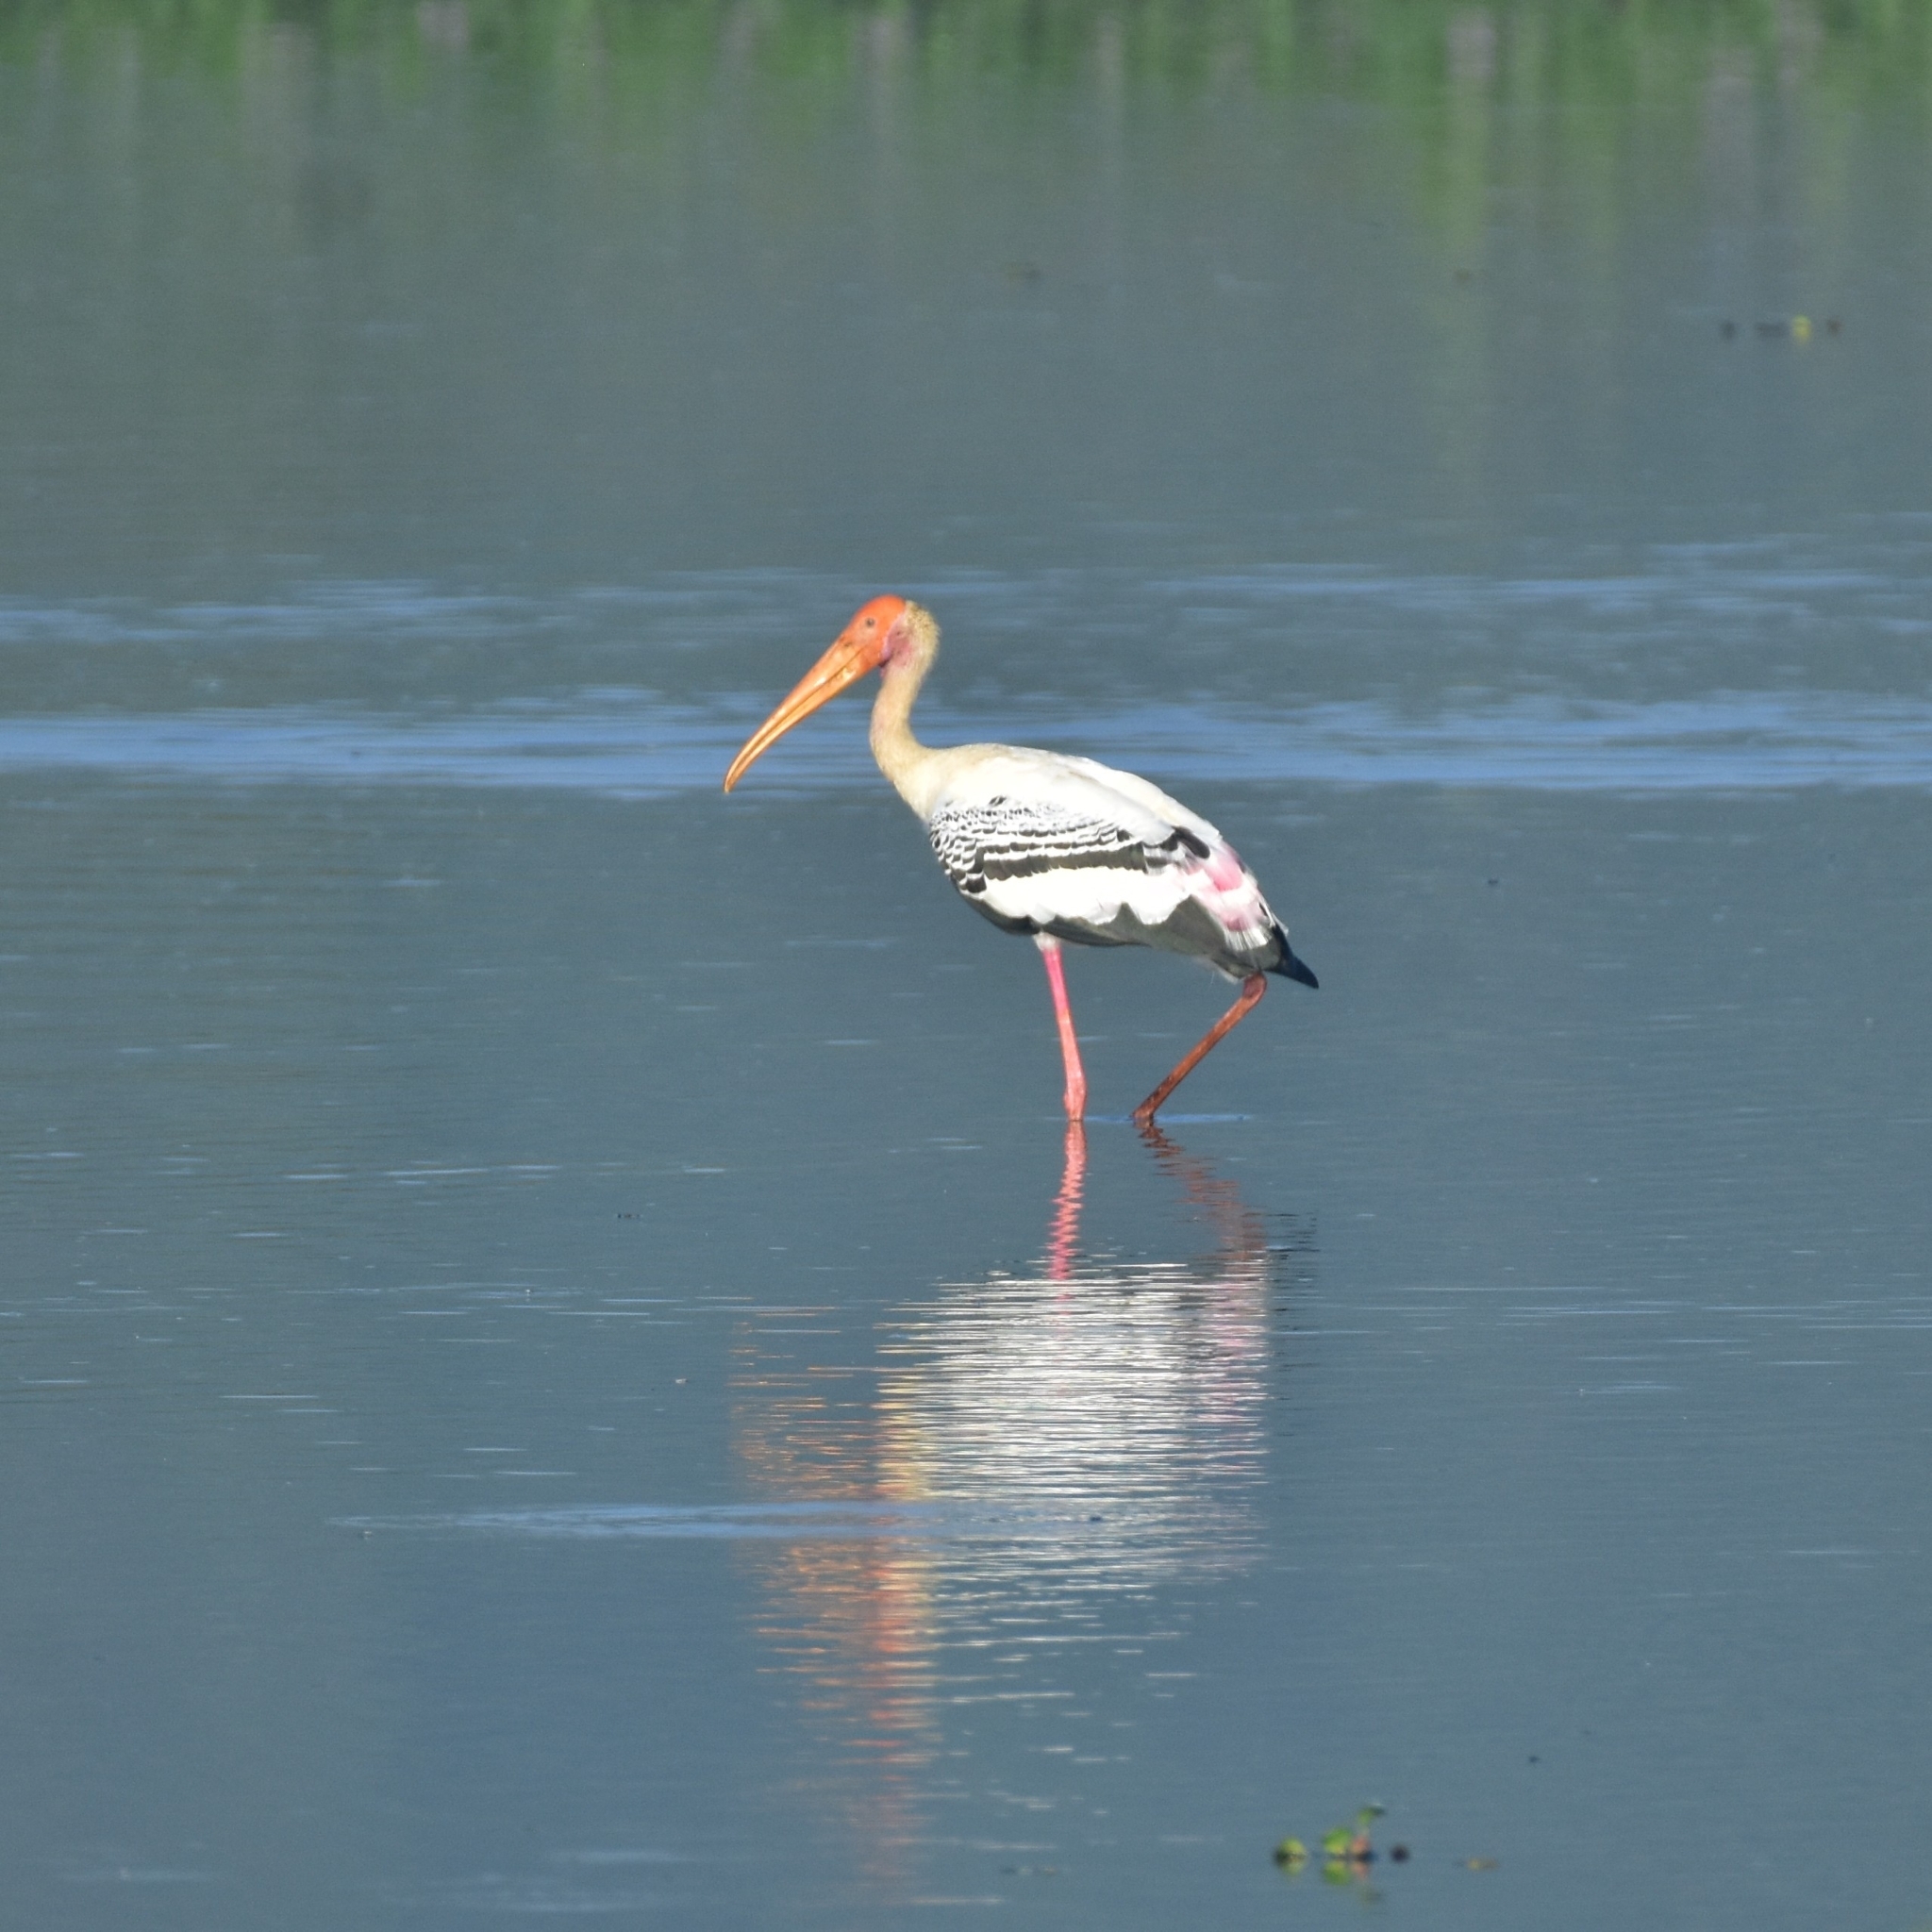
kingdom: Animalia
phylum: Chordata
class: Aves
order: Ciconiiformes
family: Ciconiidae
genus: Mycteria
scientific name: Mycteria leucocephala
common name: Painted stork
